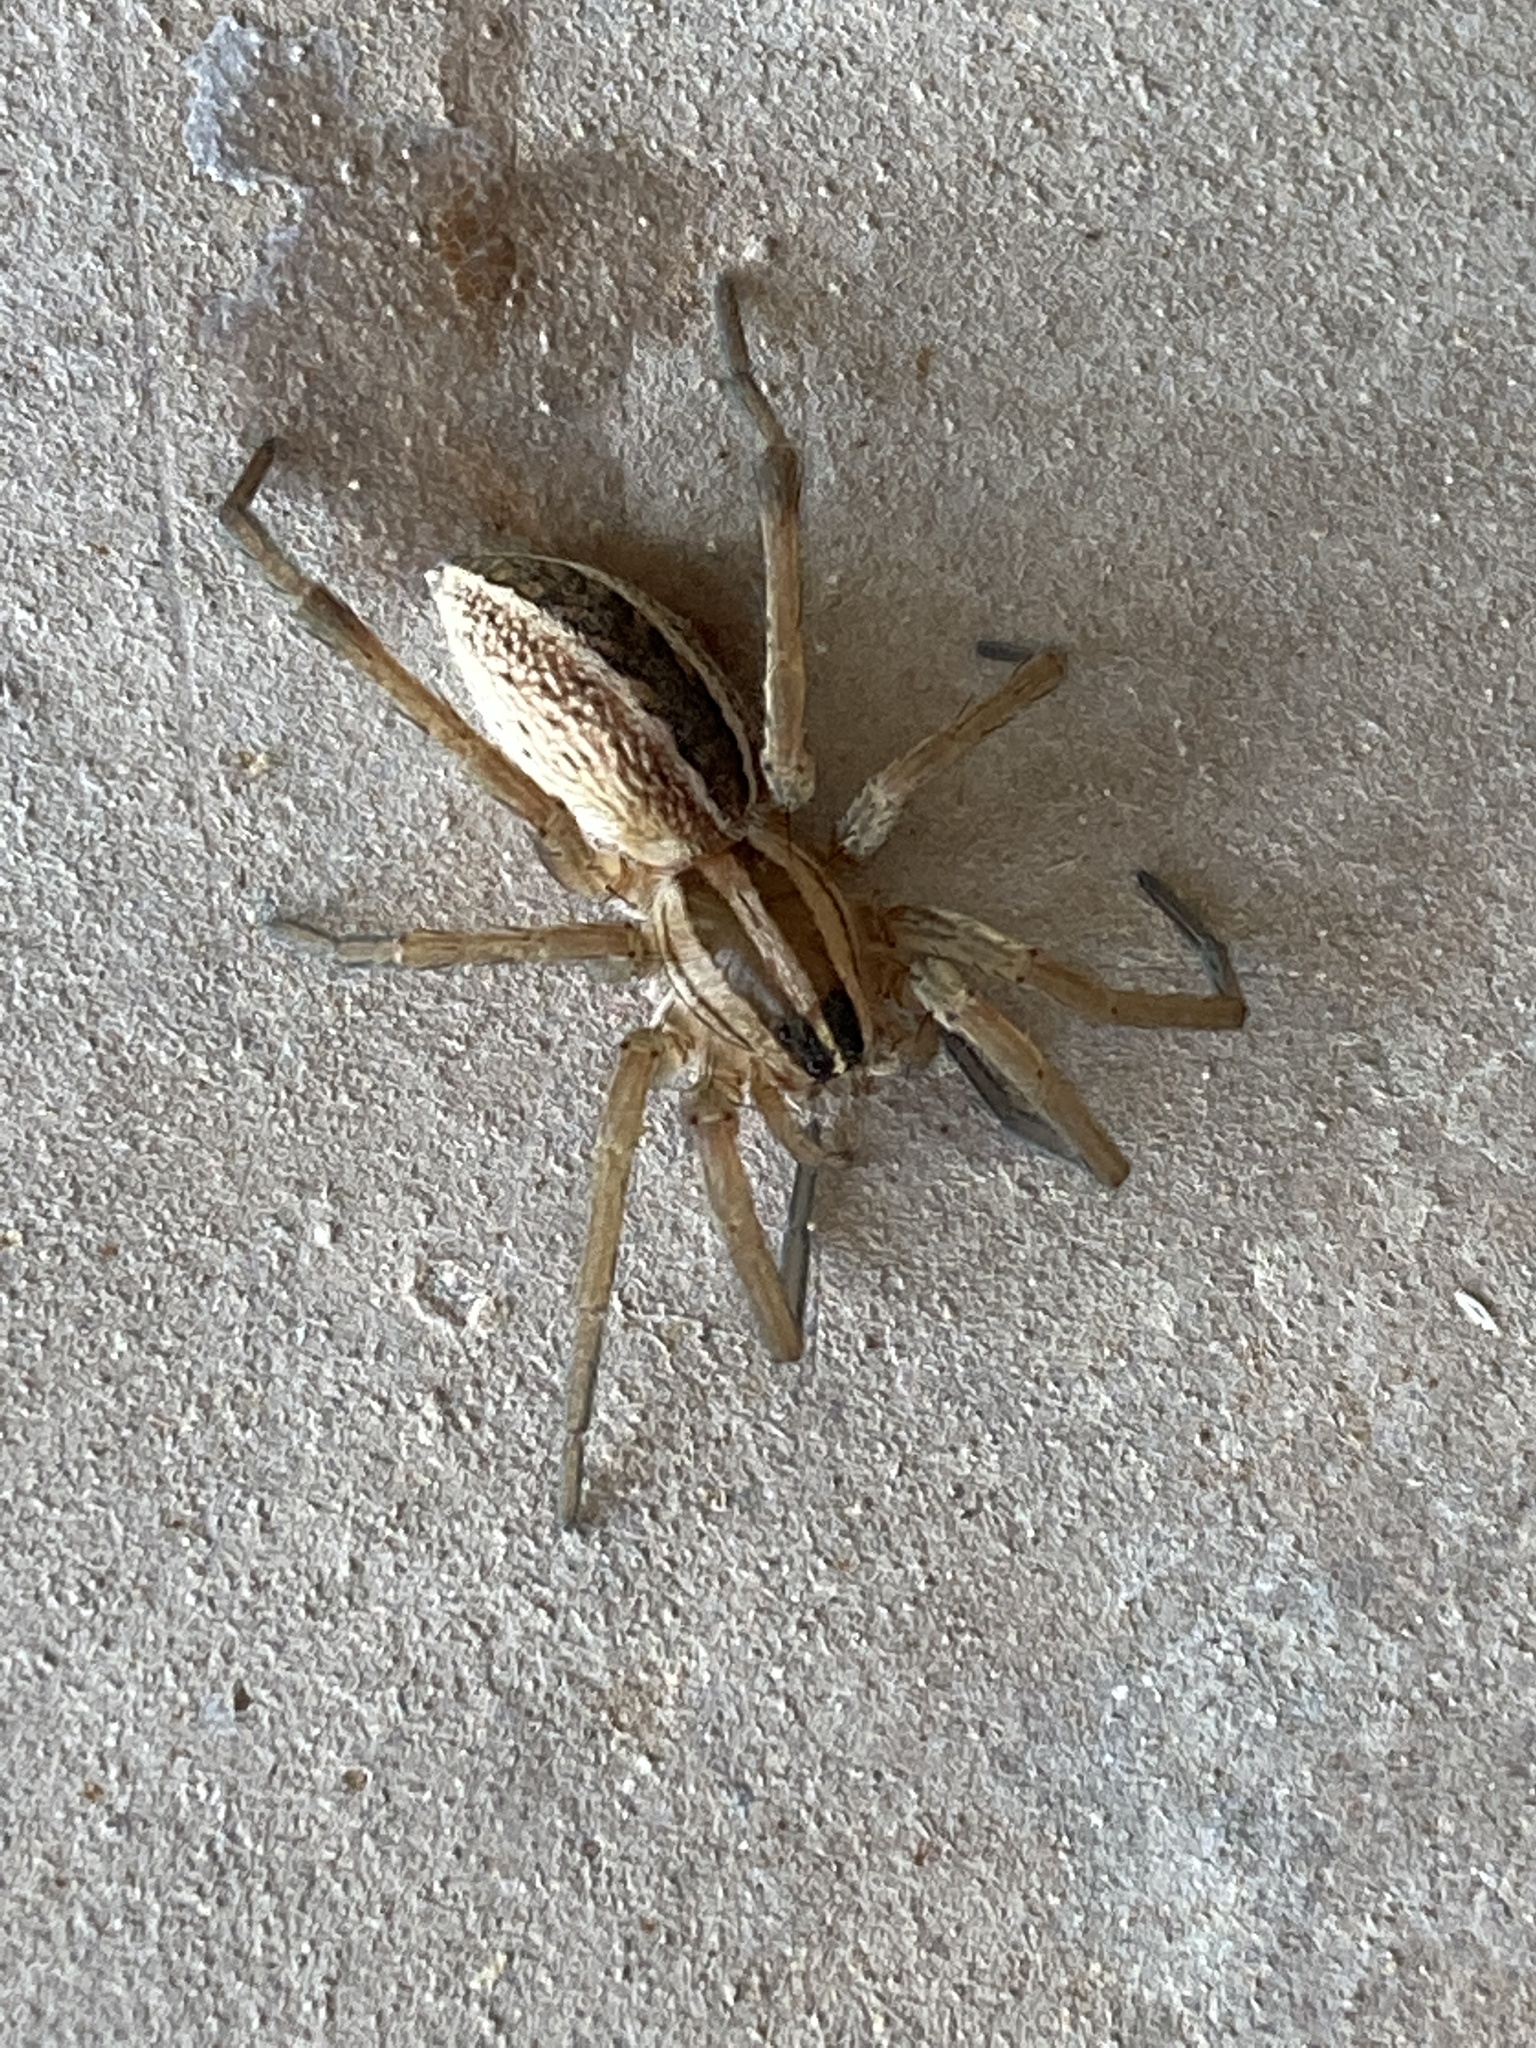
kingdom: Animalia
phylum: Arthropoda
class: Arachnida
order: Araneae
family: Lycosidae
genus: Rabidosa
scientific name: Rabidosa rabida
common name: Rabid wolf spider
